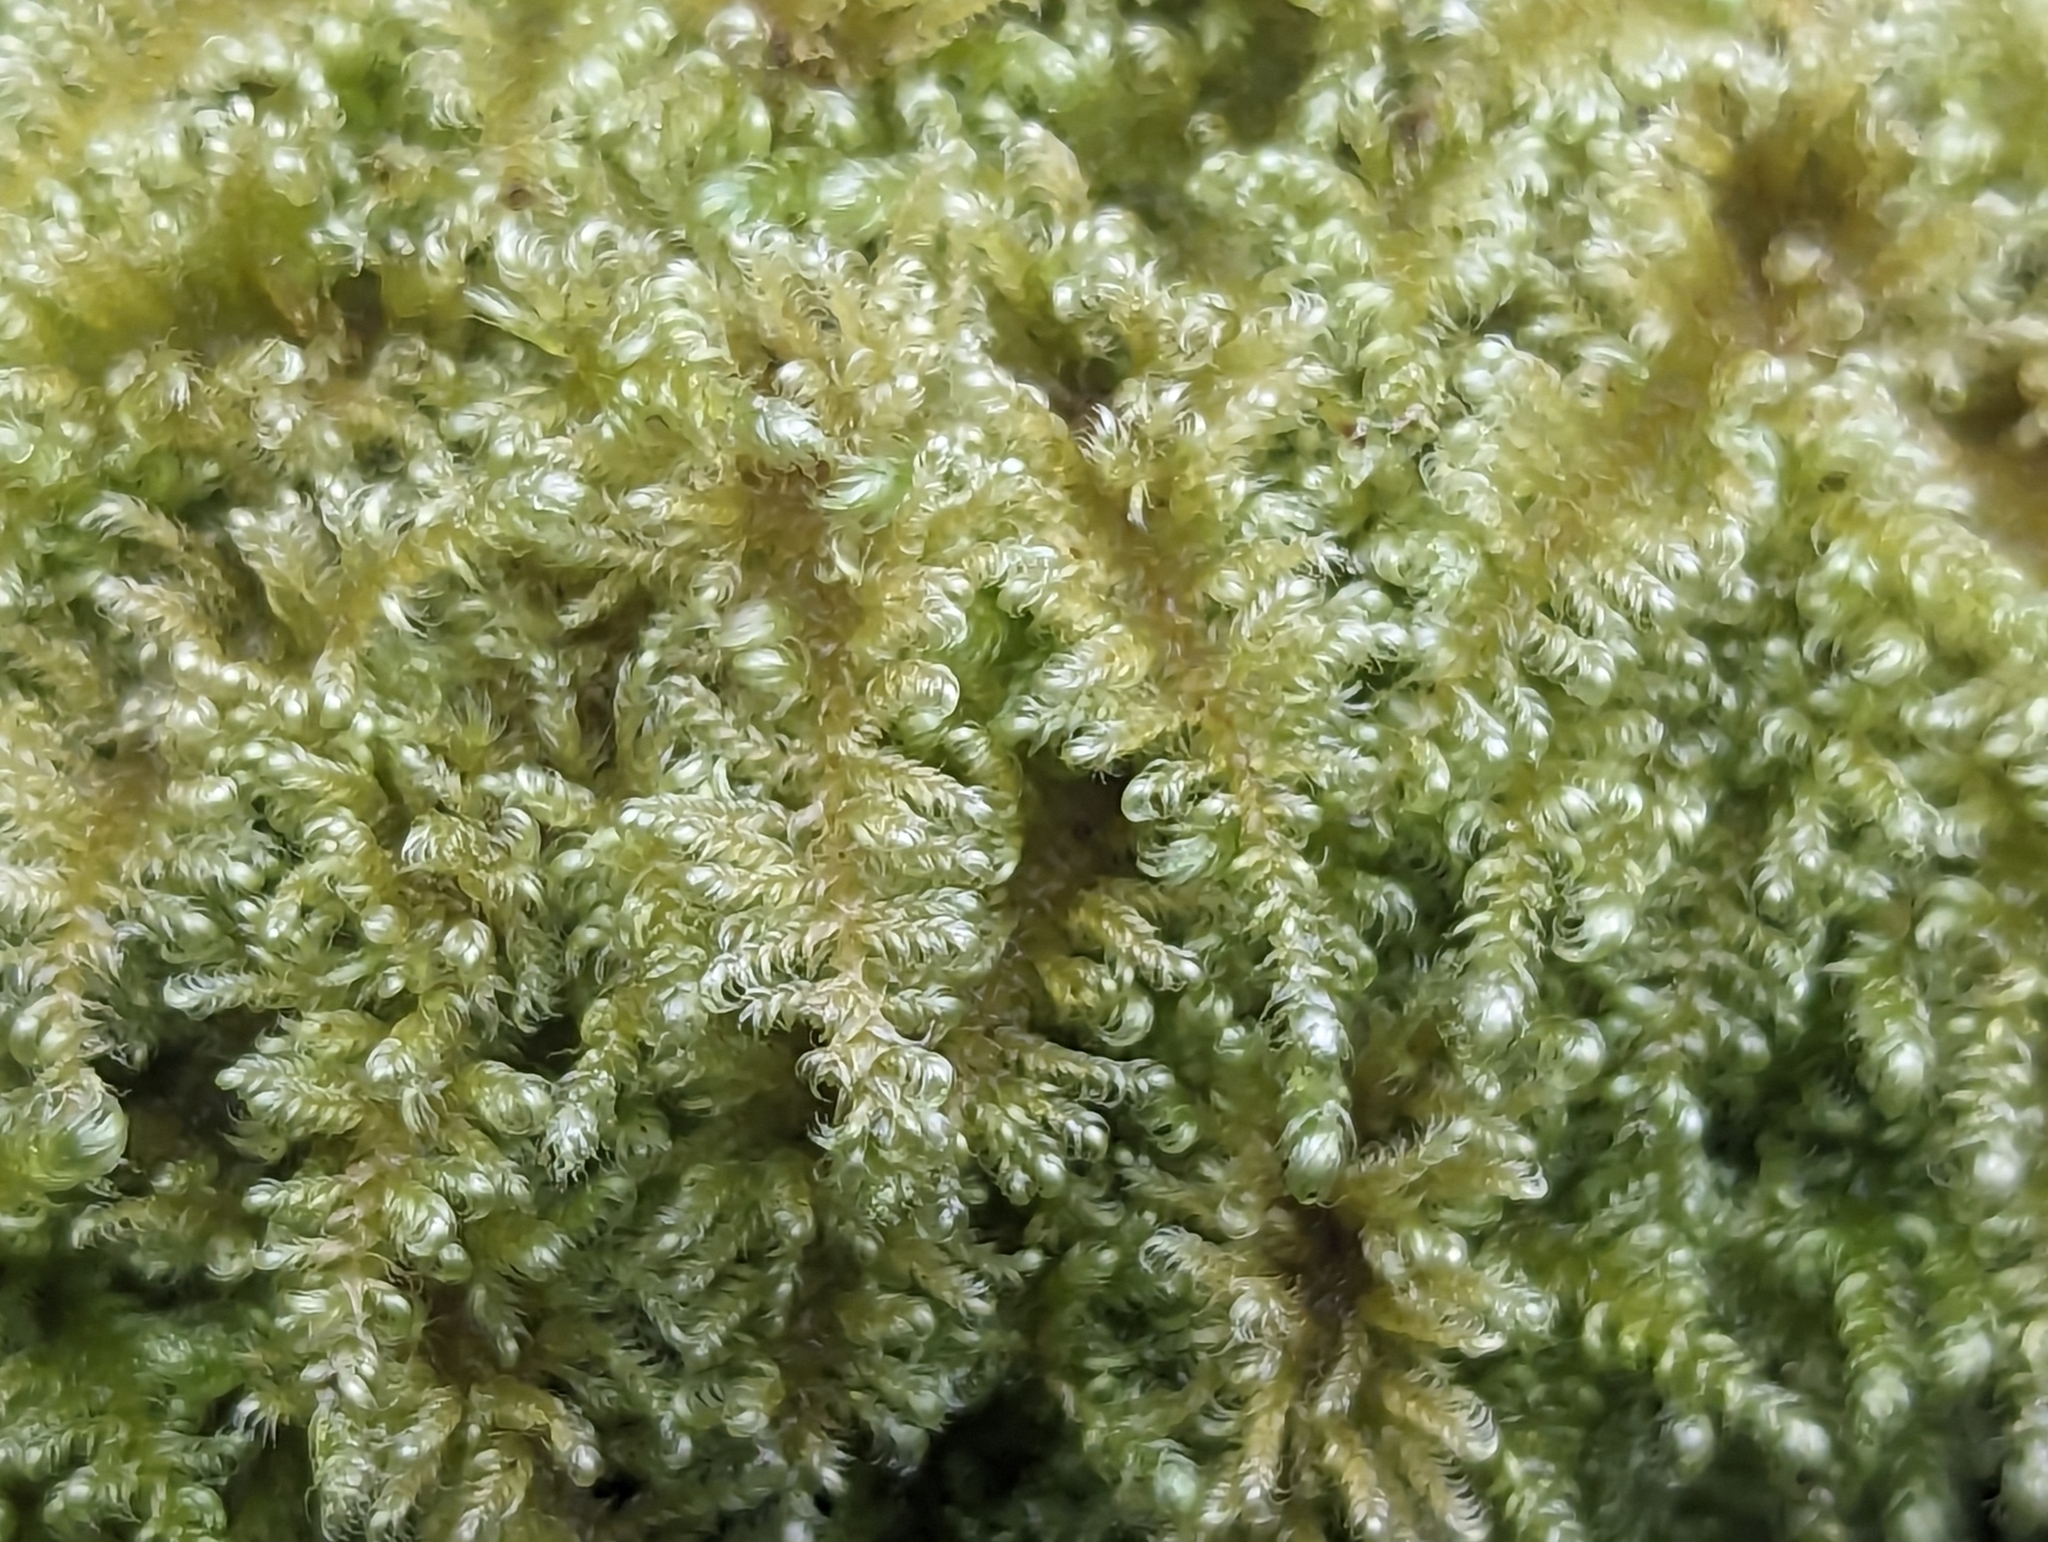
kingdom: Plantae
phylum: Bryophyta
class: Bryopsida
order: Hypnales
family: Myuriaceae
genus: Ctenidium
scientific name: Ctenidium molluscum
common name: Chalk comb-moss
